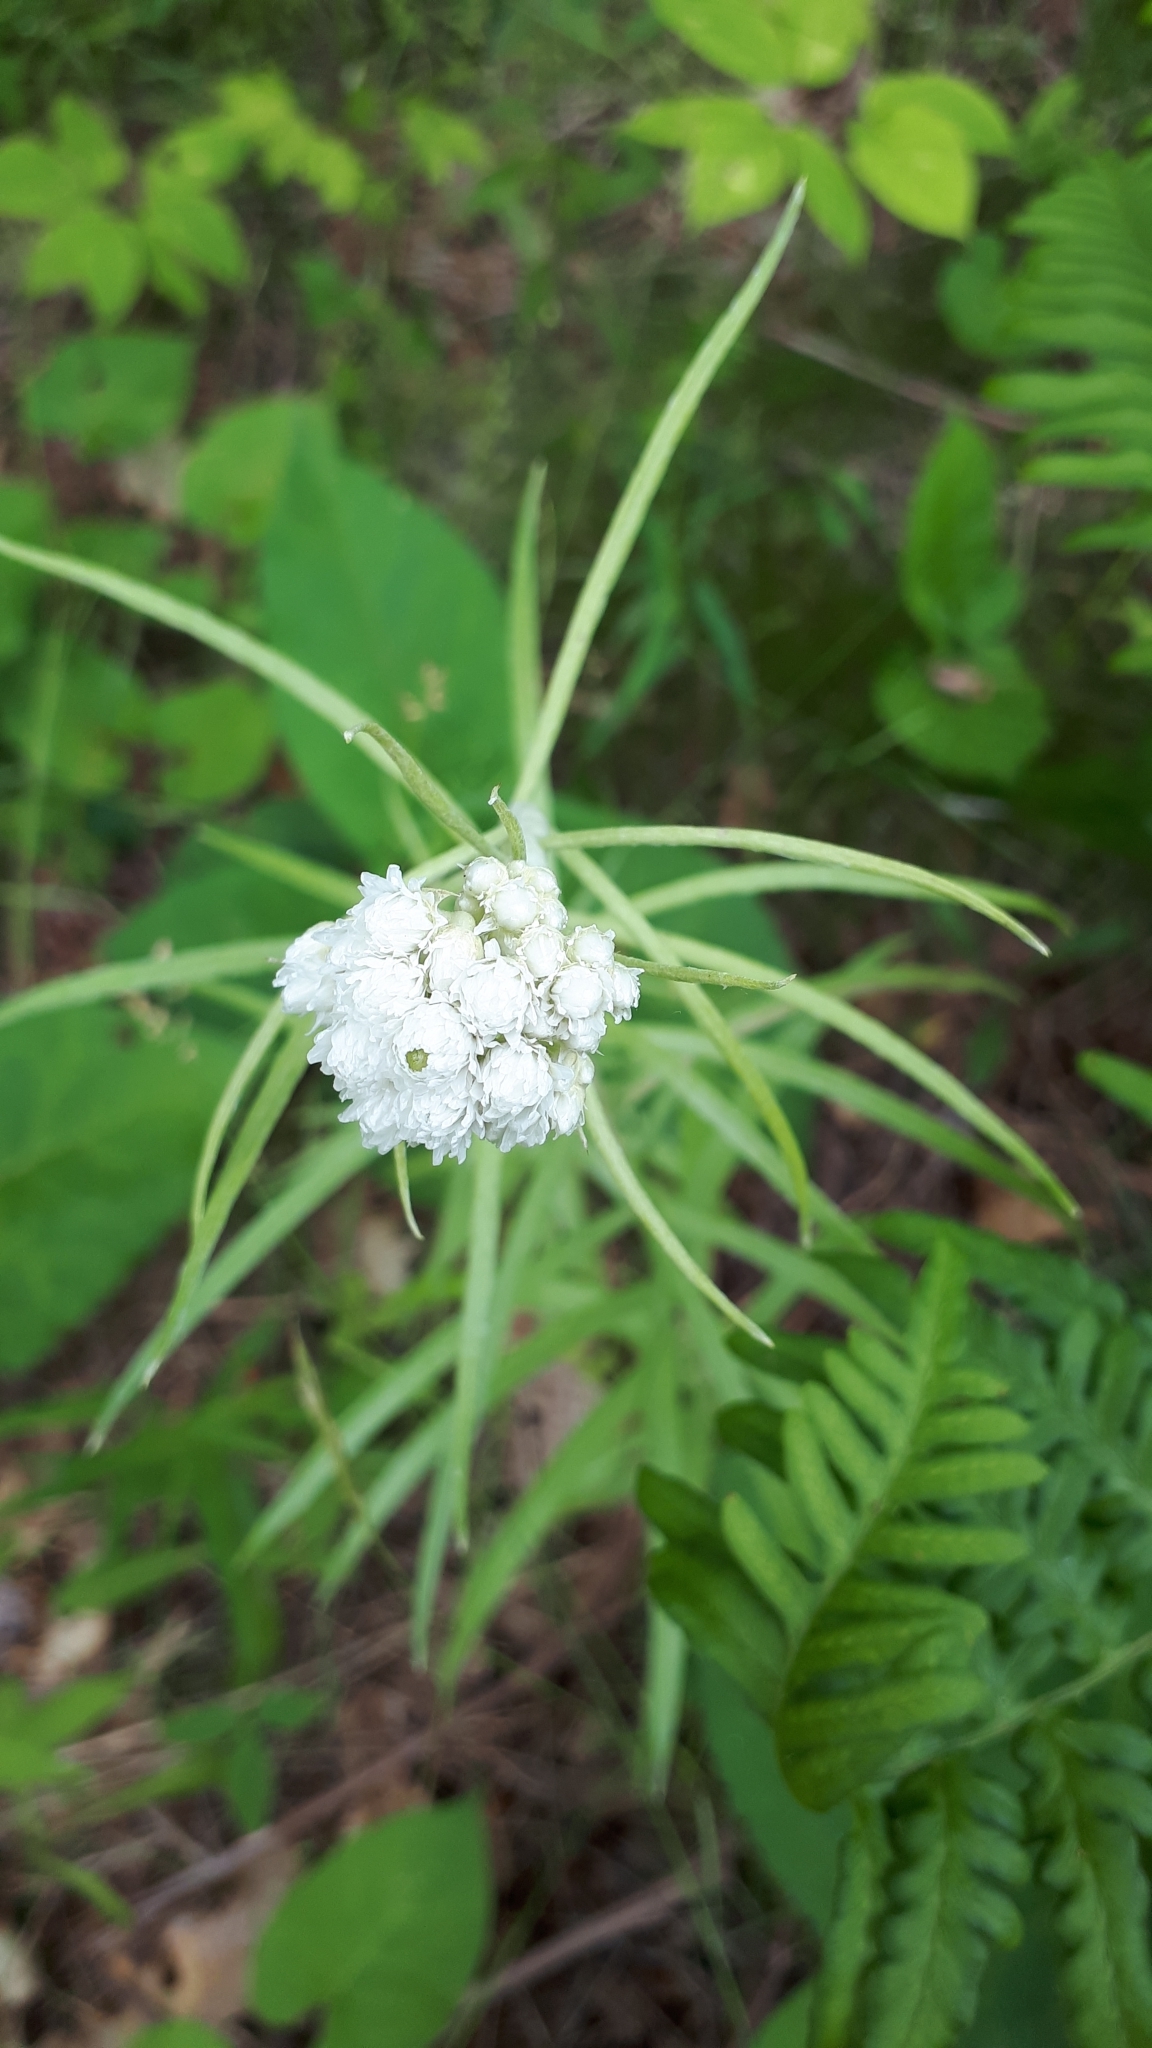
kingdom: Plantae
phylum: Tracheophyta
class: Magnoliopsida
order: Asterales
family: Asteraceae
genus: Anaphalis
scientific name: Anaphalis margaritacea
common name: Pearly everlasting
